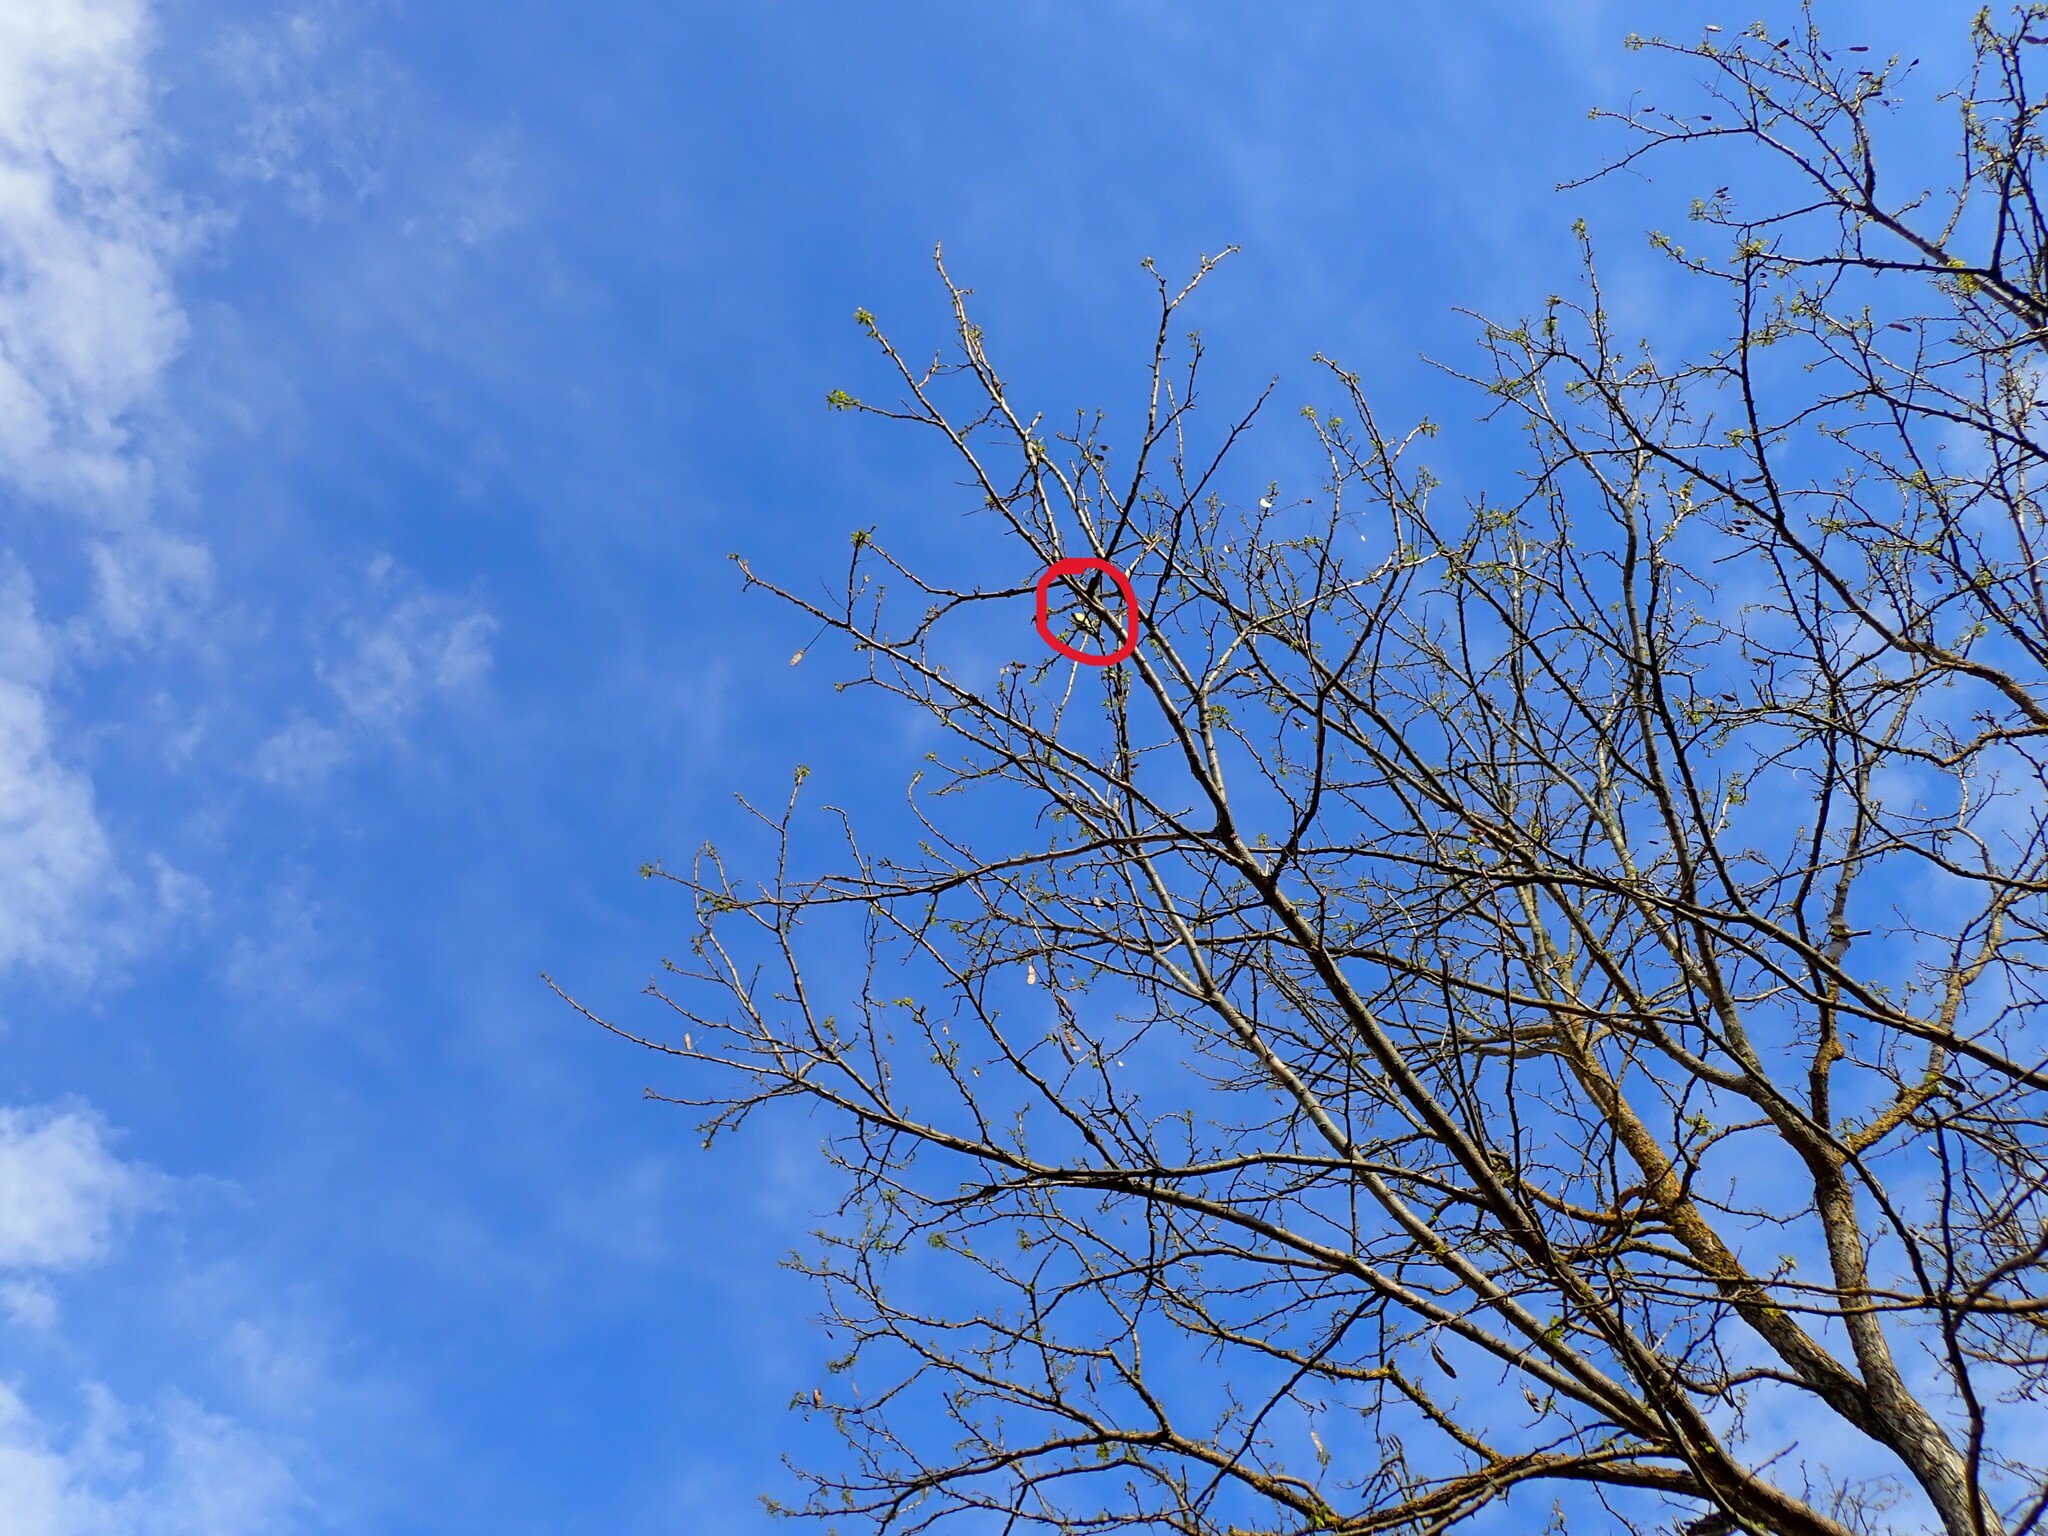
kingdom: Animalia
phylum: Chordata
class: Aves
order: Passeriformes
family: Paridae
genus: Parus
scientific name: Parus major
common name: Great tit
